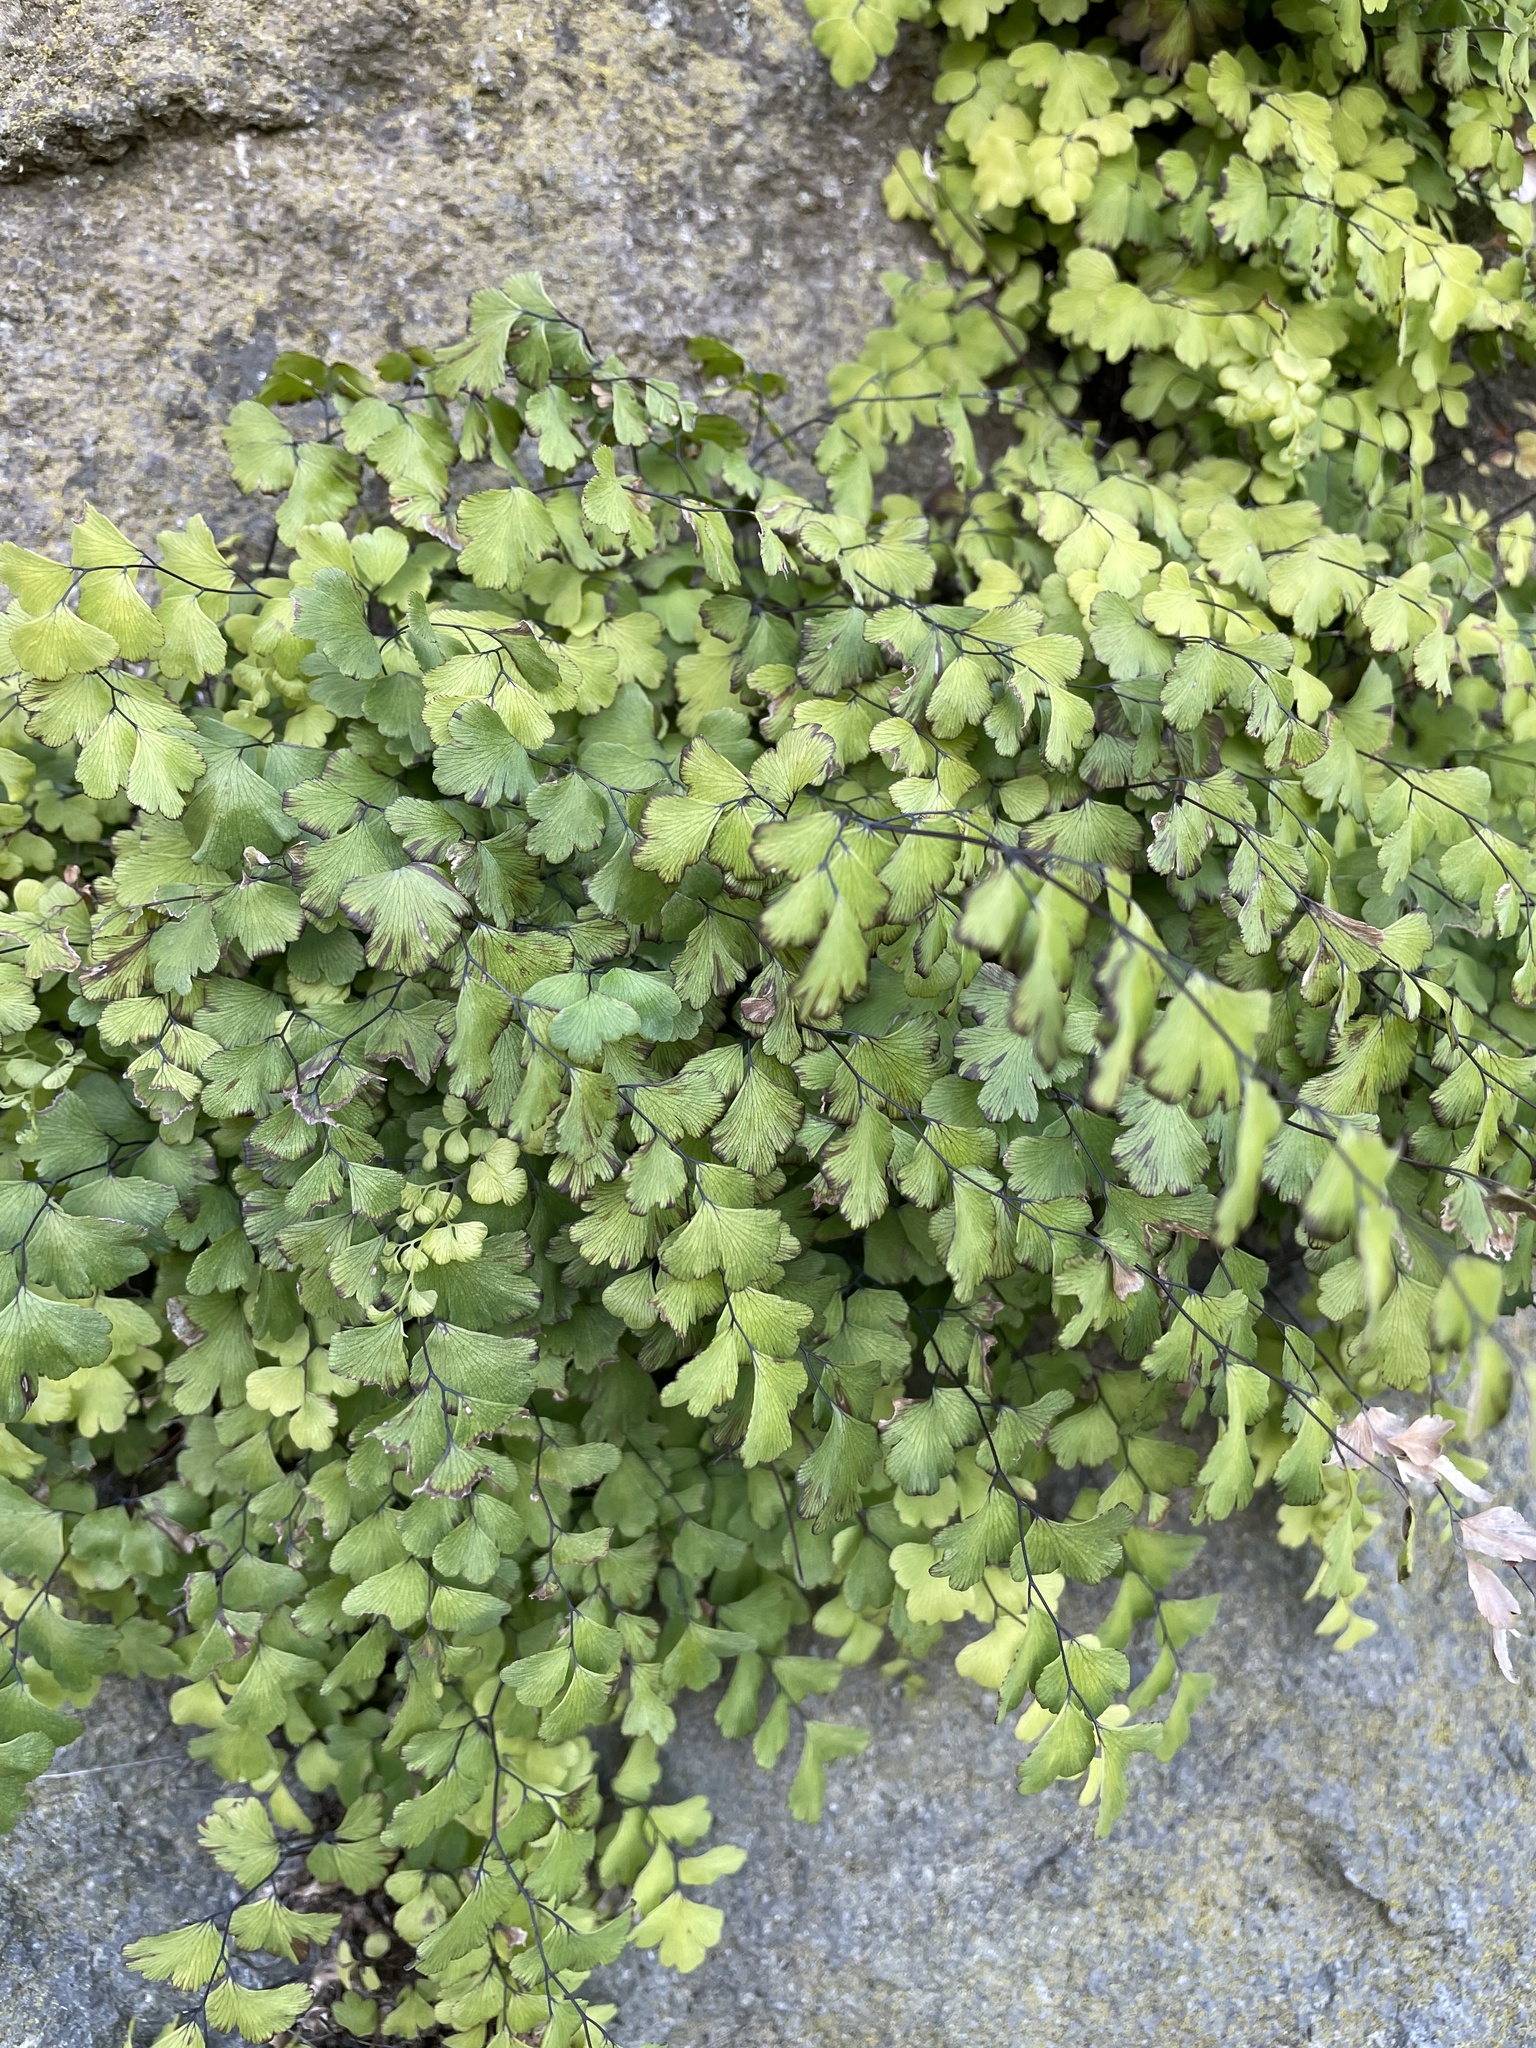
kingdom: Plantae
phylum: Tracheophyta
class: Polypodiopsida
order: Polypodiales
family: Pteridaceae
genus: Adiantum
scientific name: Adiantum capillus-veneris
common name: Maidenhair fern
